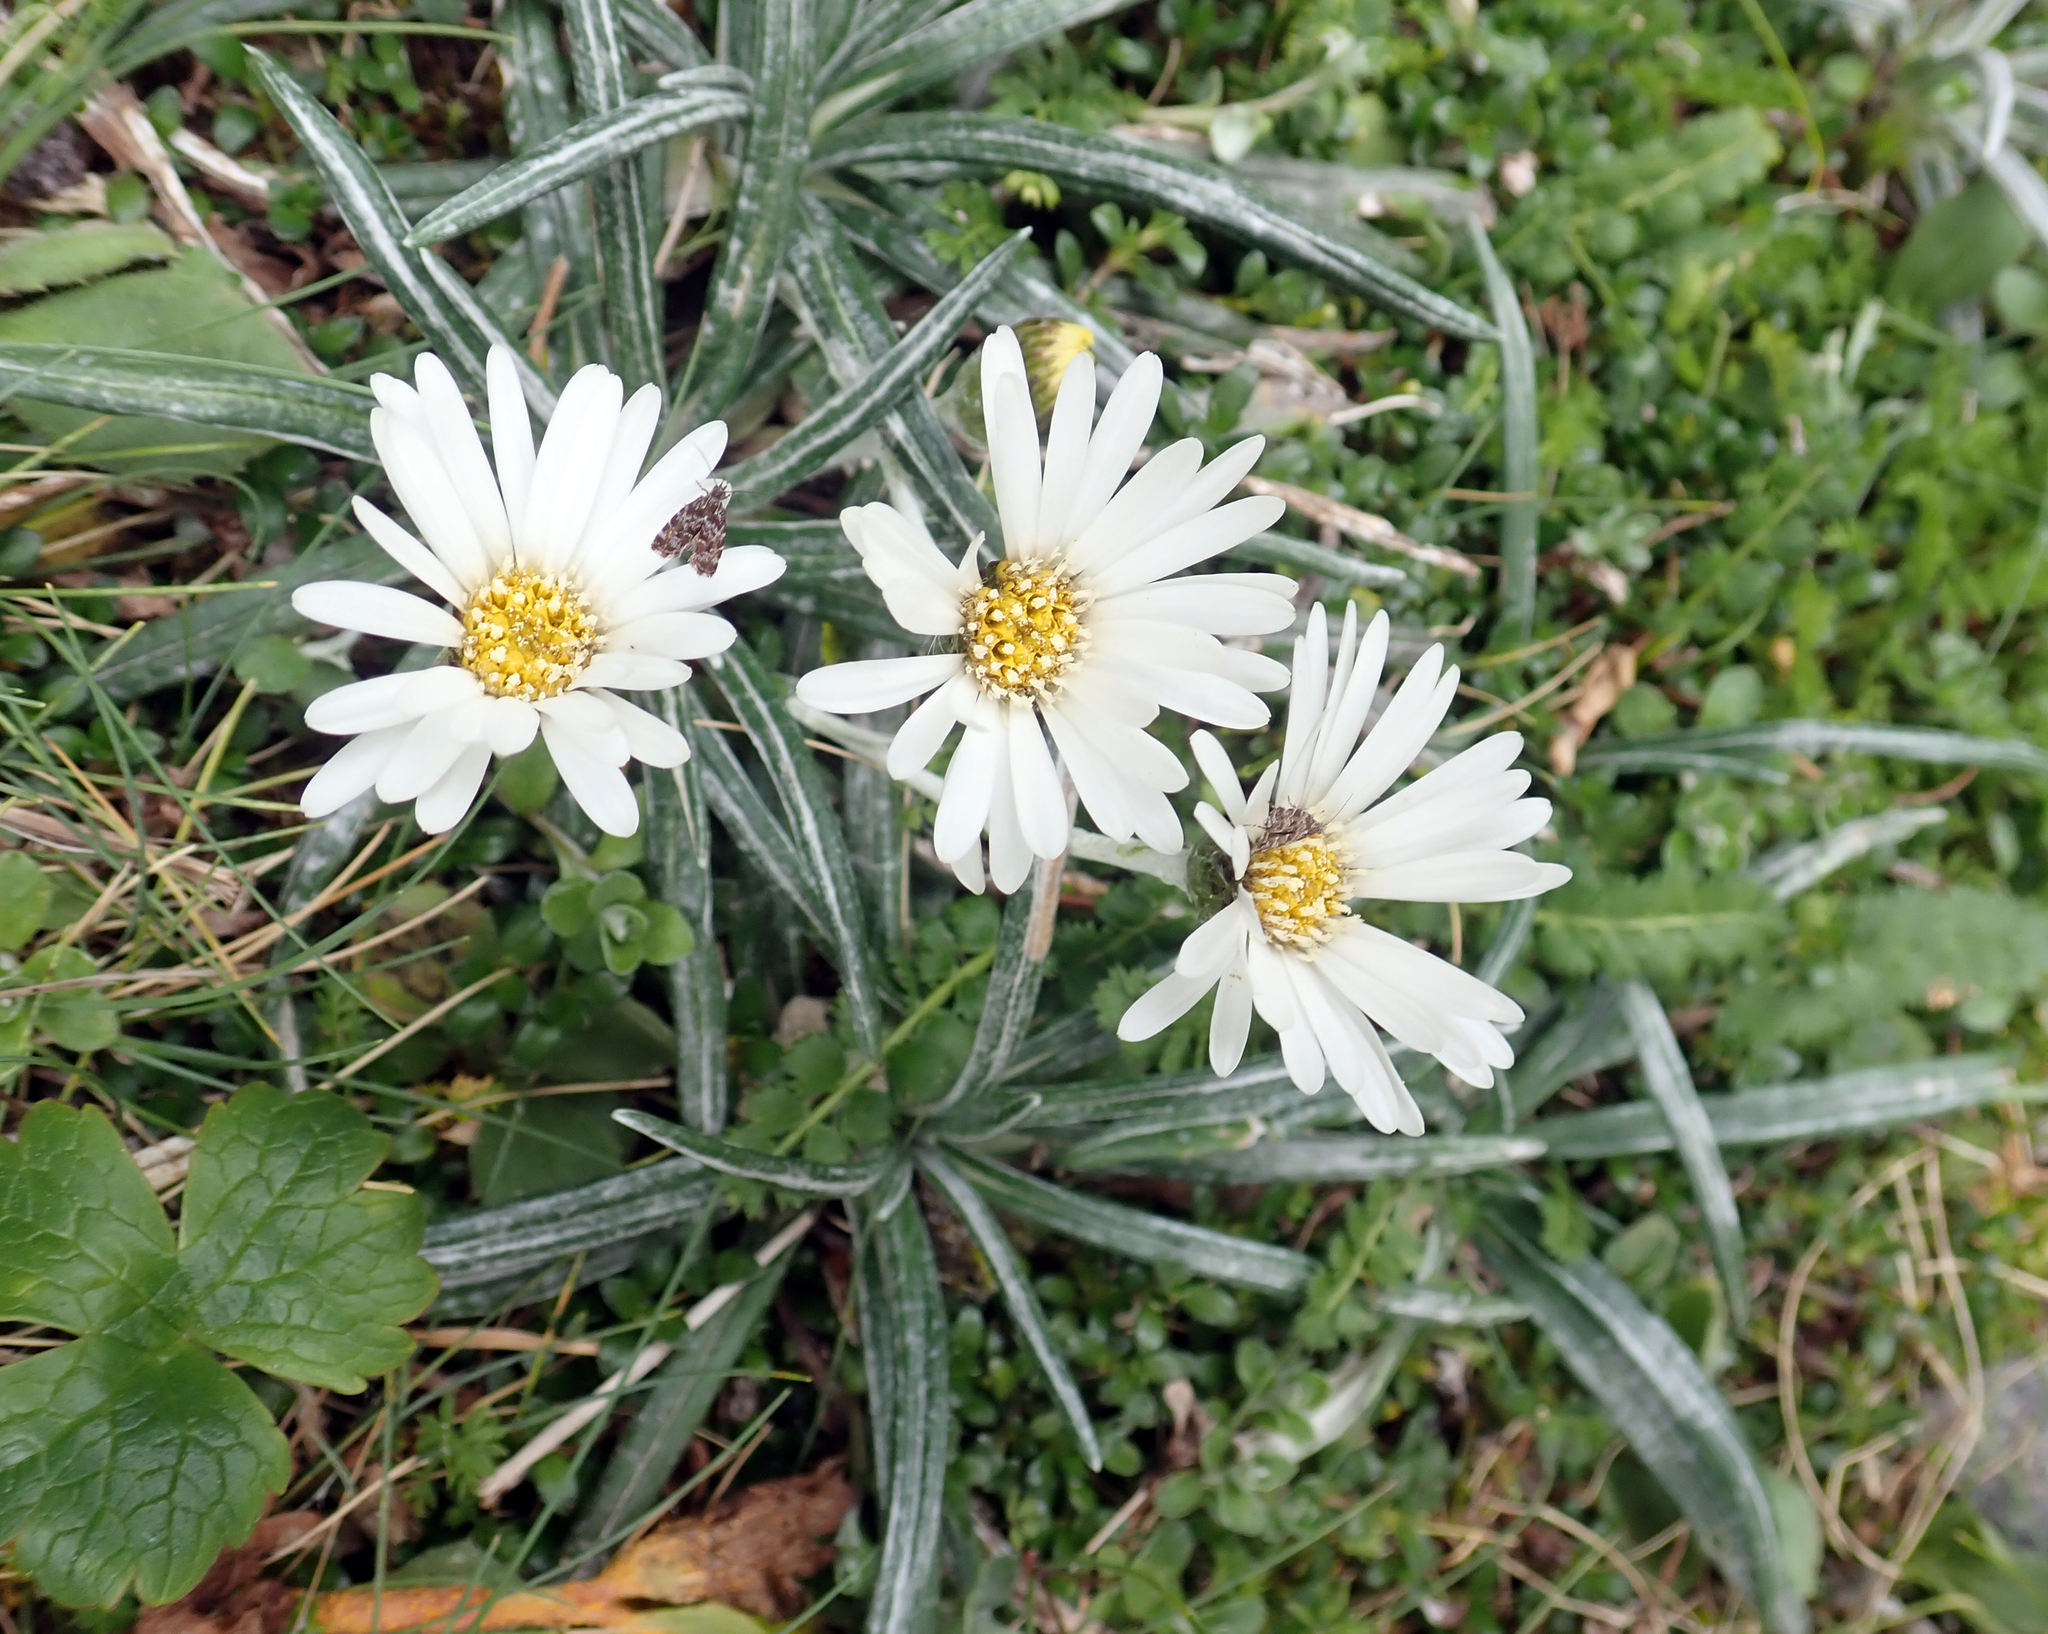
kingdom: Plantae
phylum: Tracheophyta
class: Magnoliopsida
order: Asterales
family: Asteraceae
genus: Celmisia
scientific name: Celmisia major
